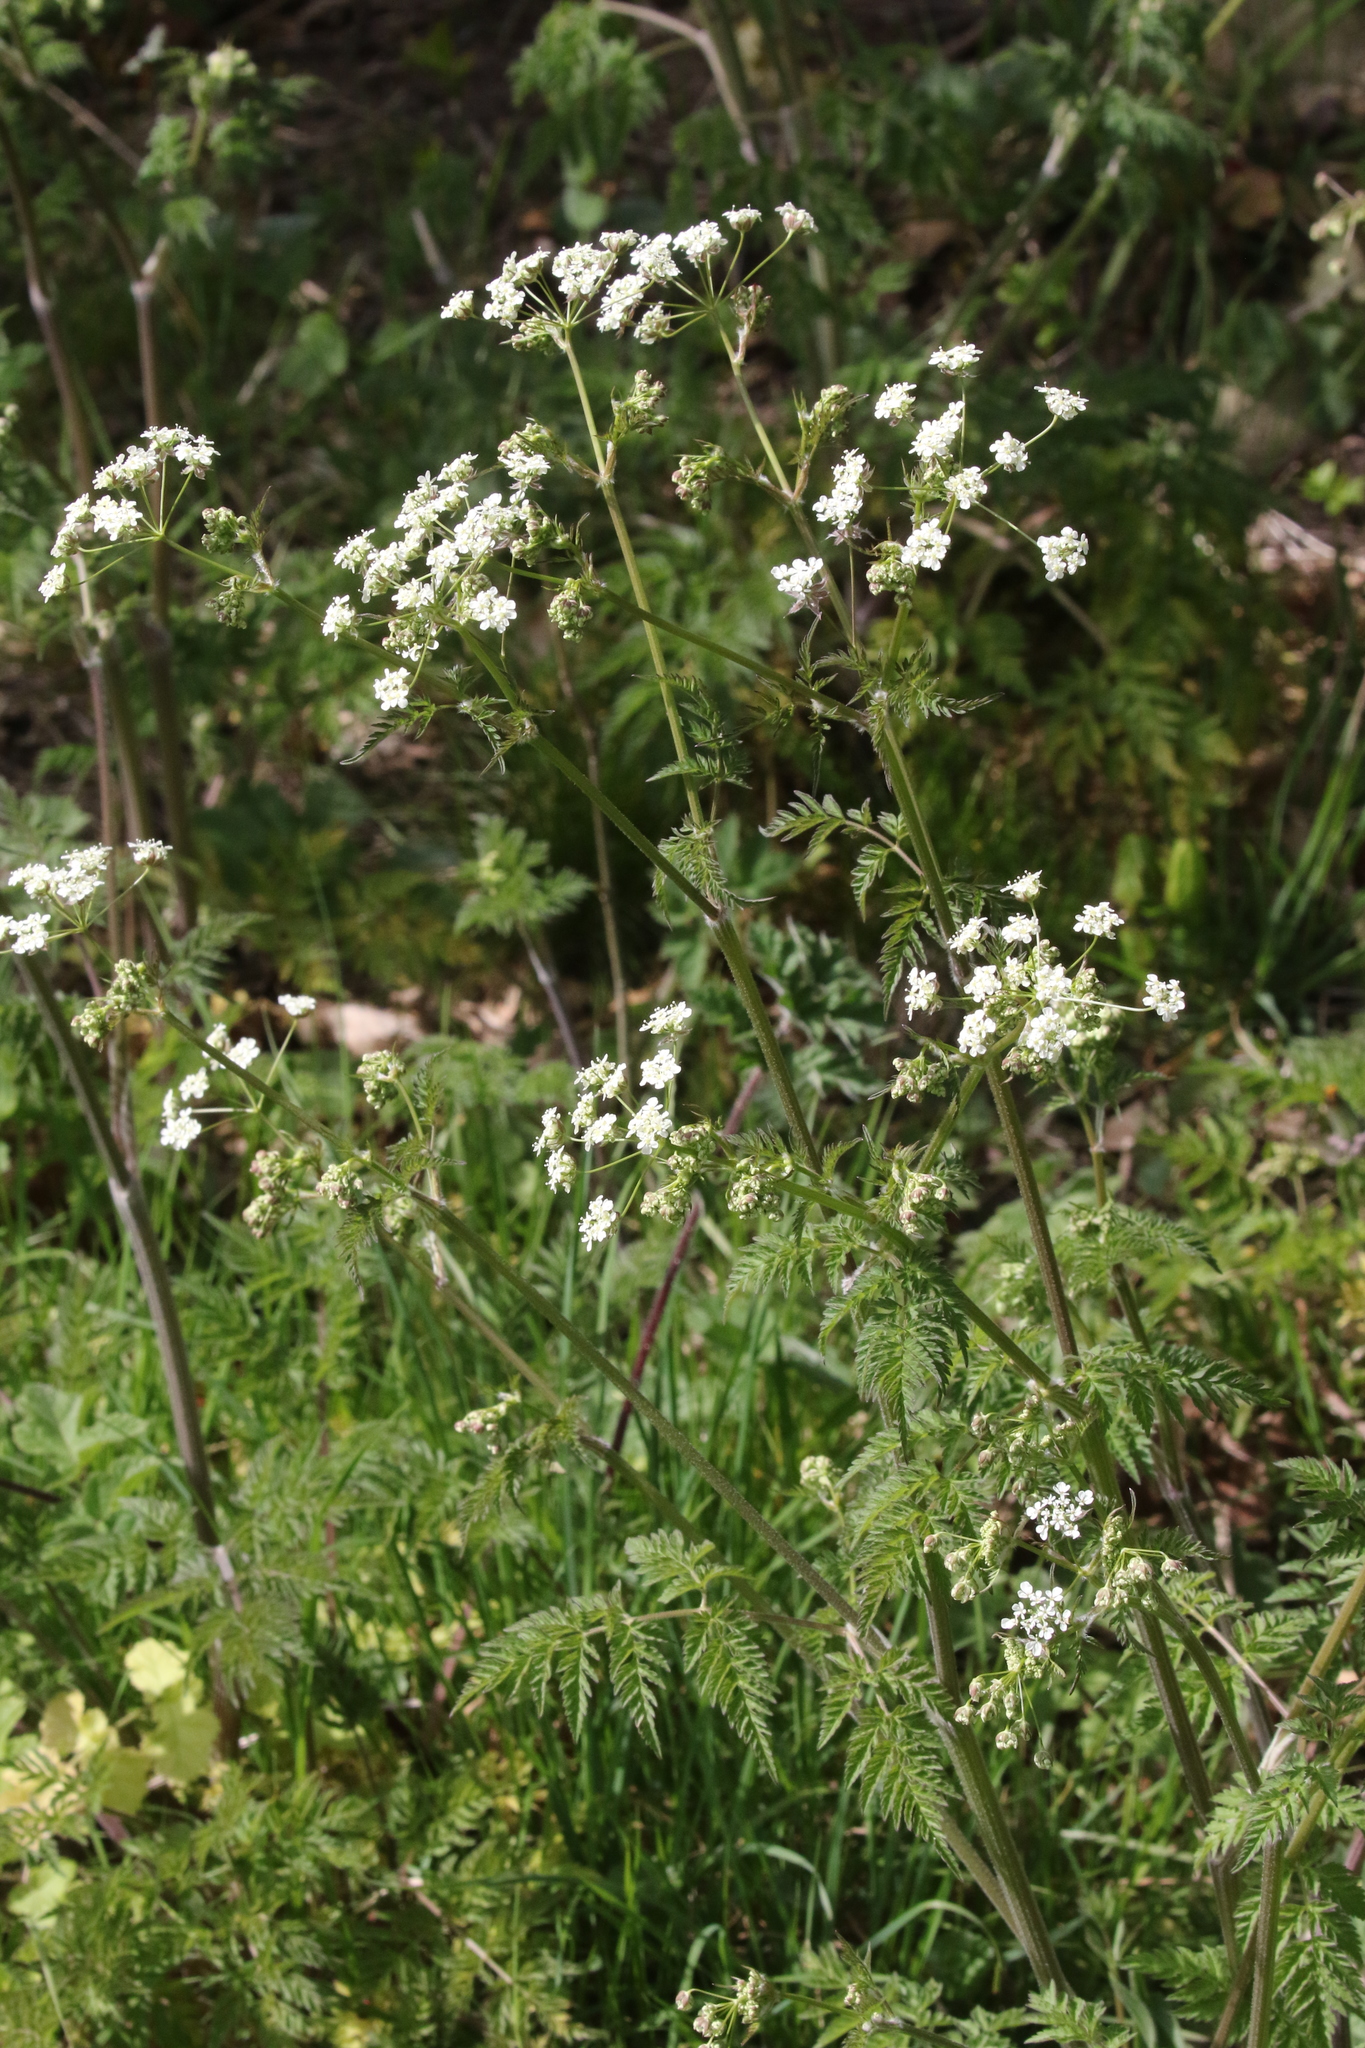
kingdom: Plantae
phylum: Tracheophyta
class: Magnoliopsida
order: Apiales
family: Apiaceae
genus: Anthriscus
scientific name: Anthriscus sylvestris
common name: Cow parsley
